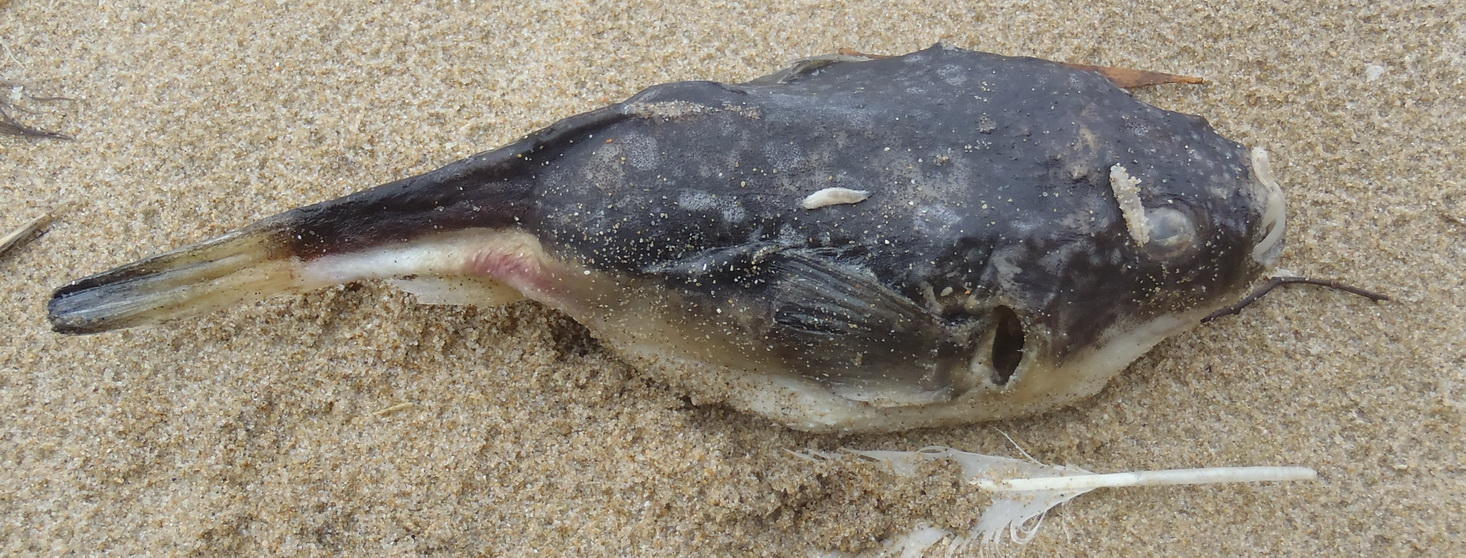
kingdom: Animalia
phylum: Chordata
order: Tetraodontiformes
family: Tetraodontidae
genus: Amblyrhynchote
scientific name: Amblyrhynchote honckenii
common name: Evileye blaasop
